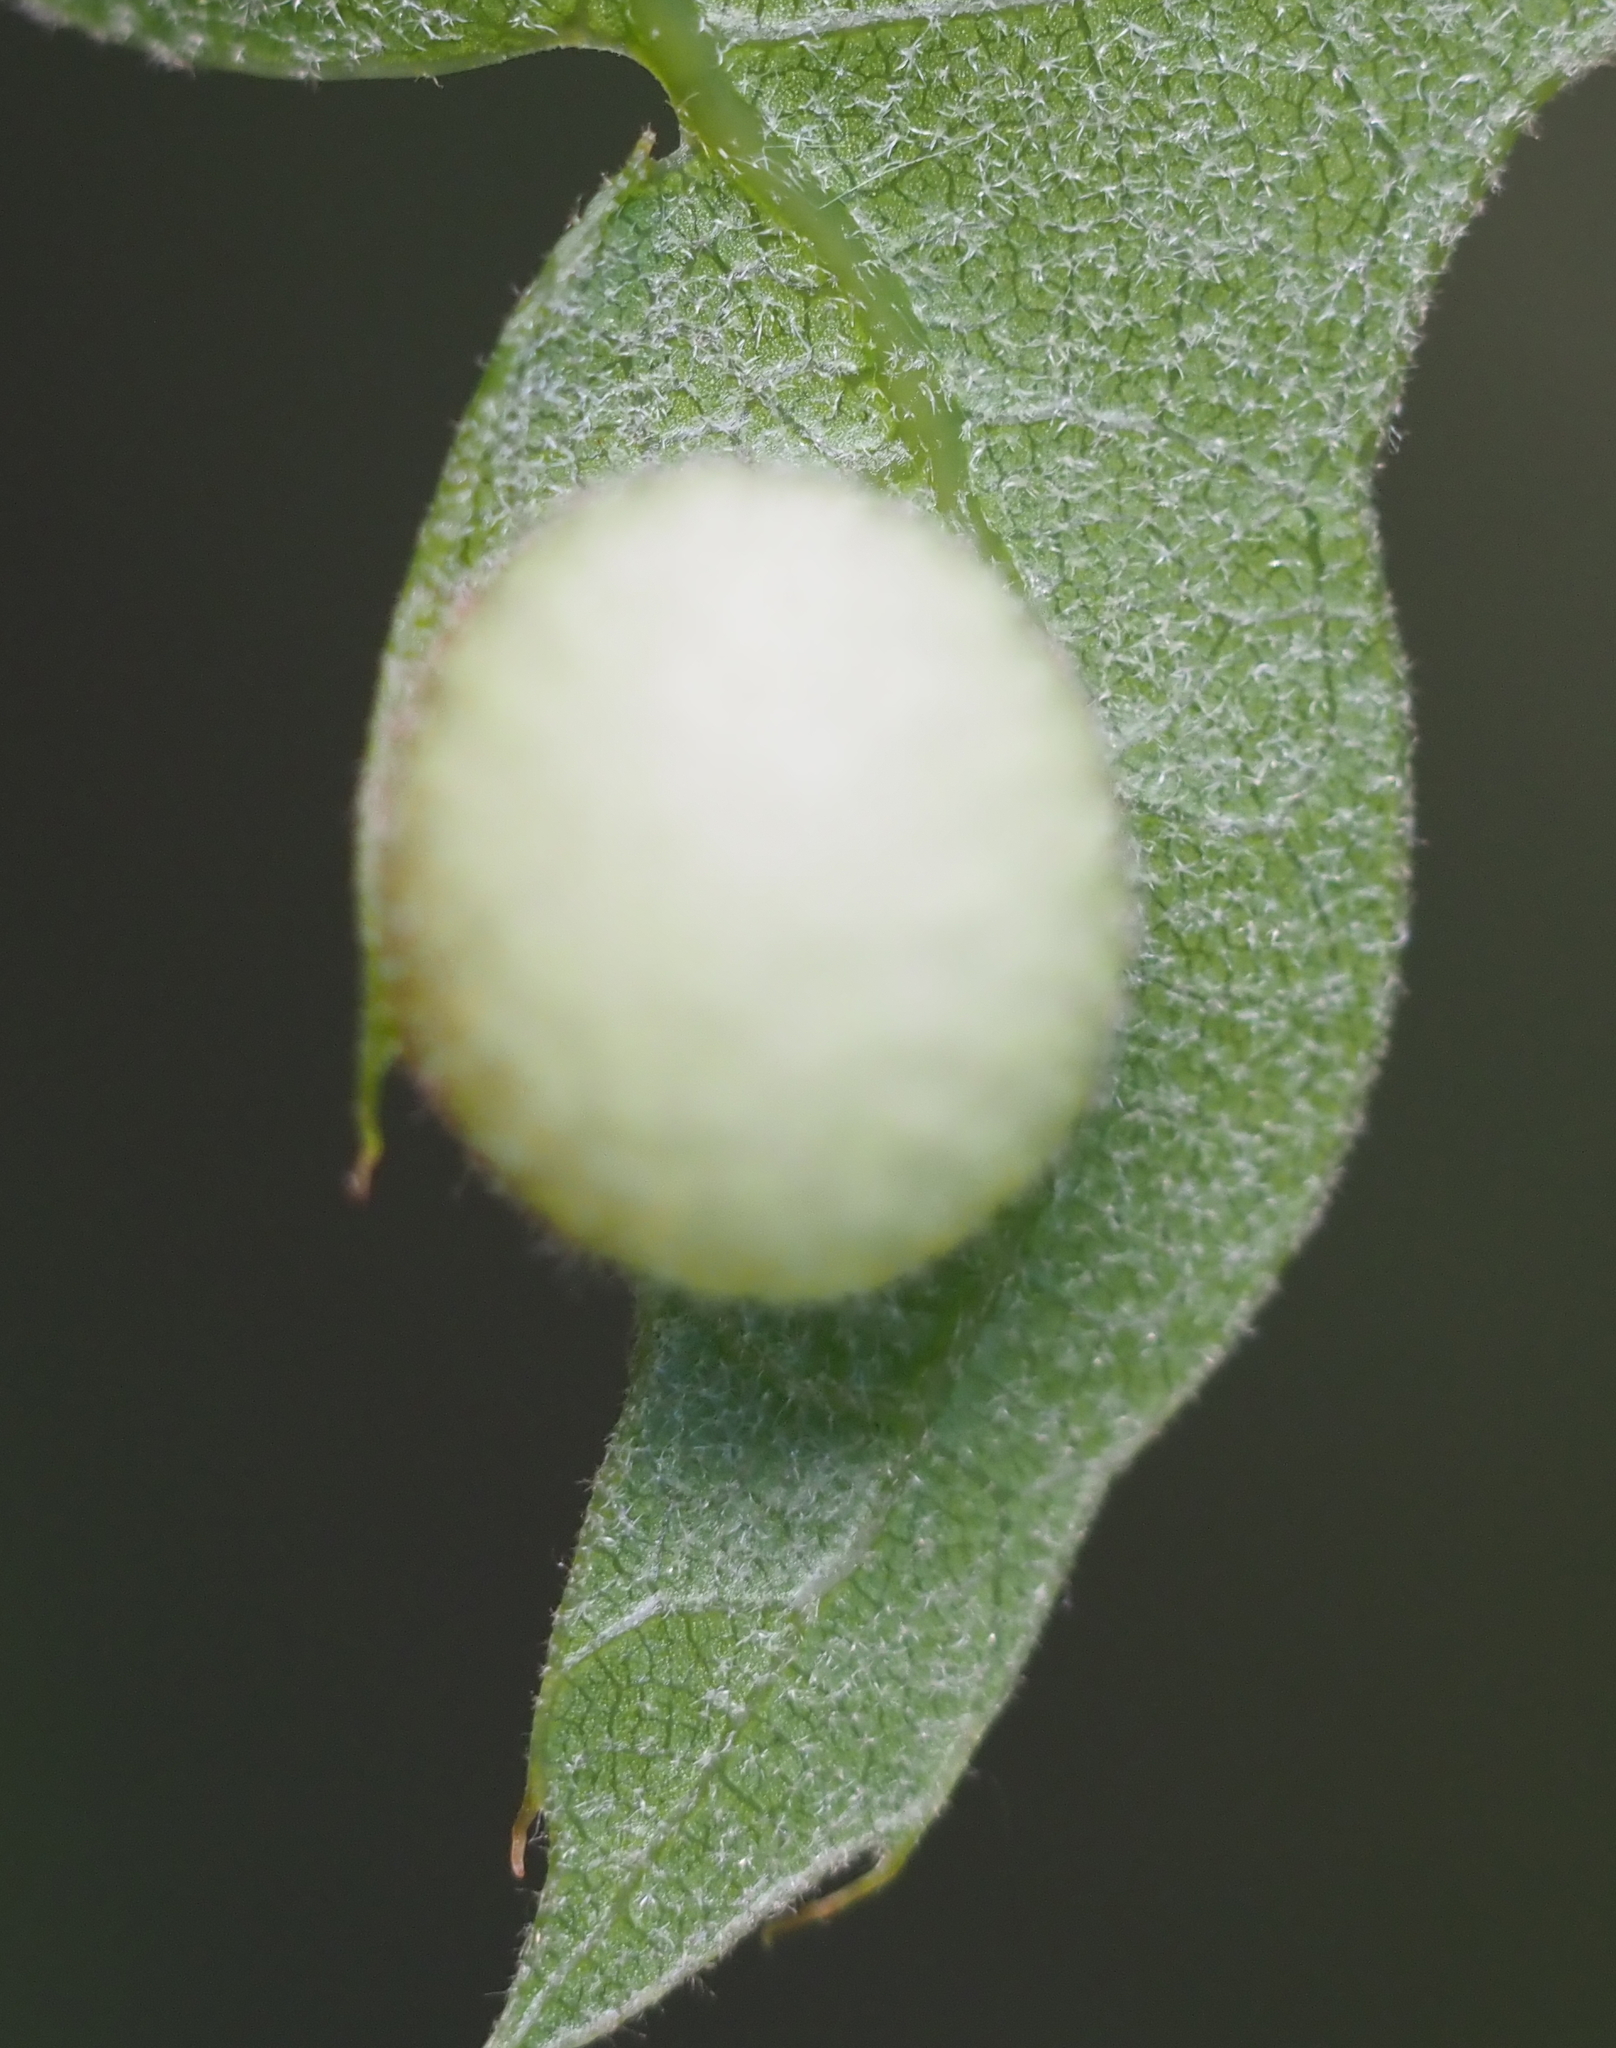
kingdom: Animalia
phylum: Arthropoda
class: Insecta
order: Hymenoptera
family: Cynipidae
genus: Amphibolips
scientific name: Amphibolips
